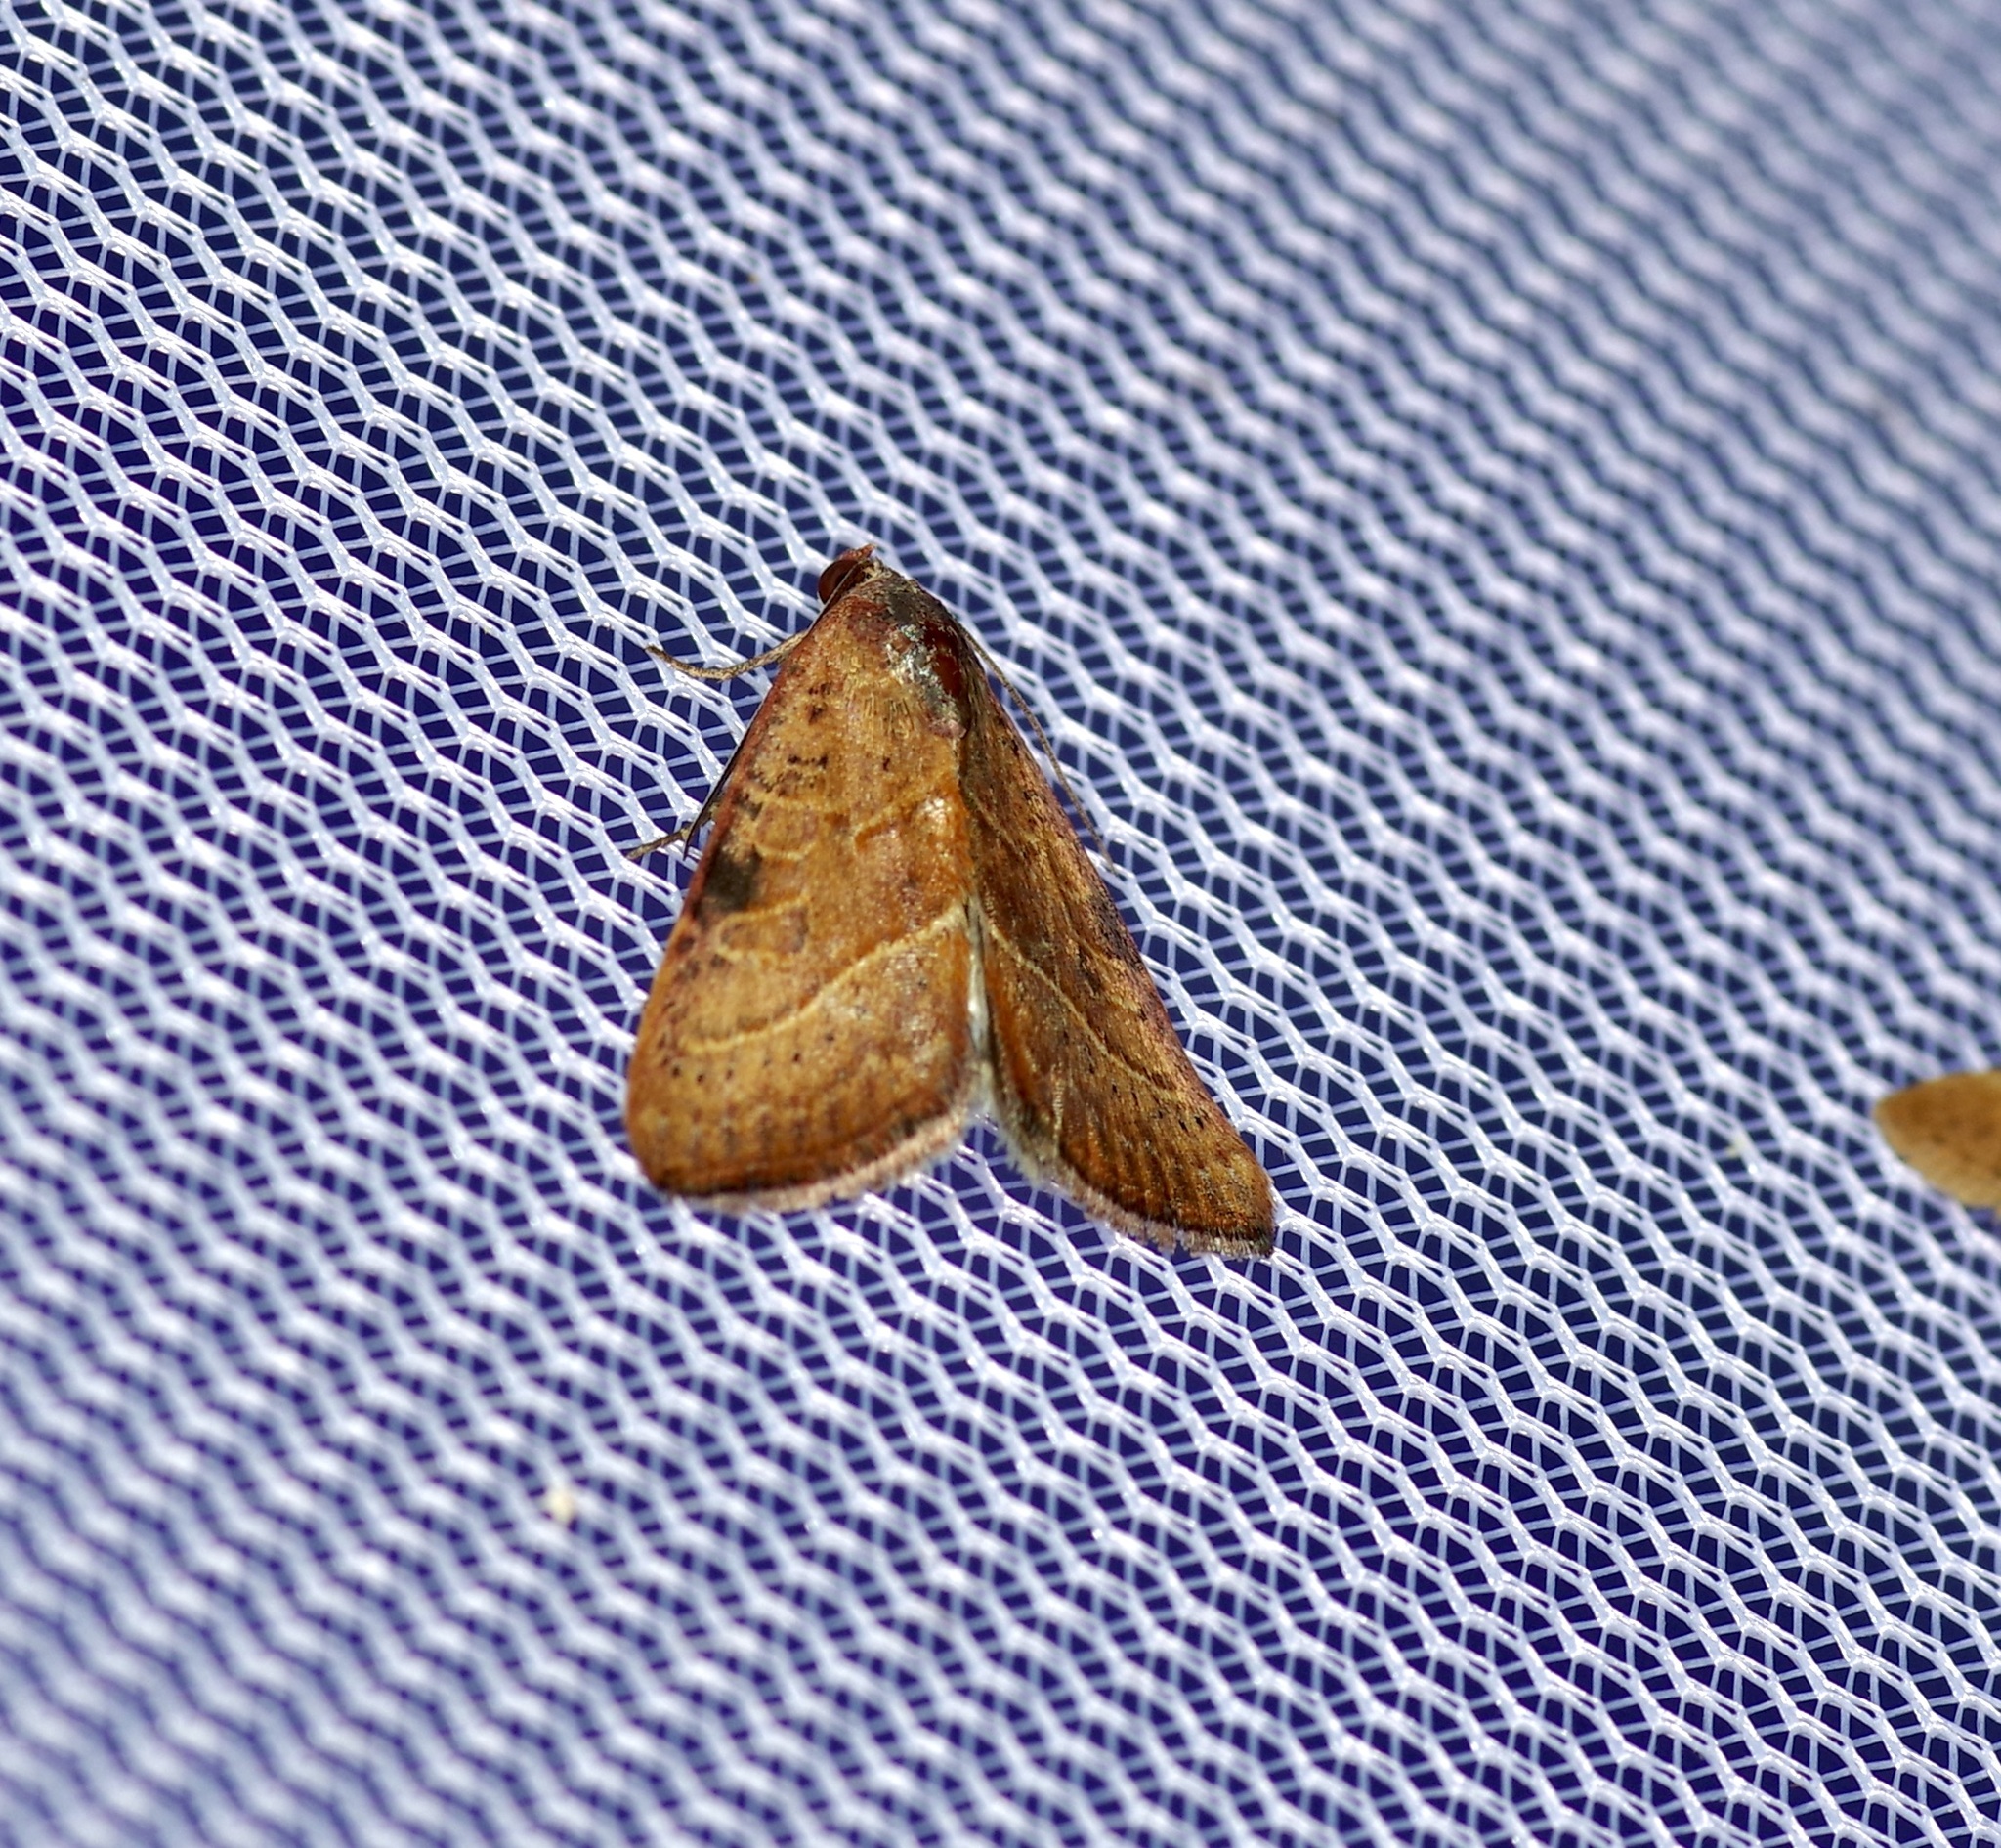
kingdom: Animalia
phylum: Arthropoda
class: Insecta
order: Lepidoptera
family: Noctuidae
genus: Galgula
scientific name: Galgula partita
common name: Wedgeling
